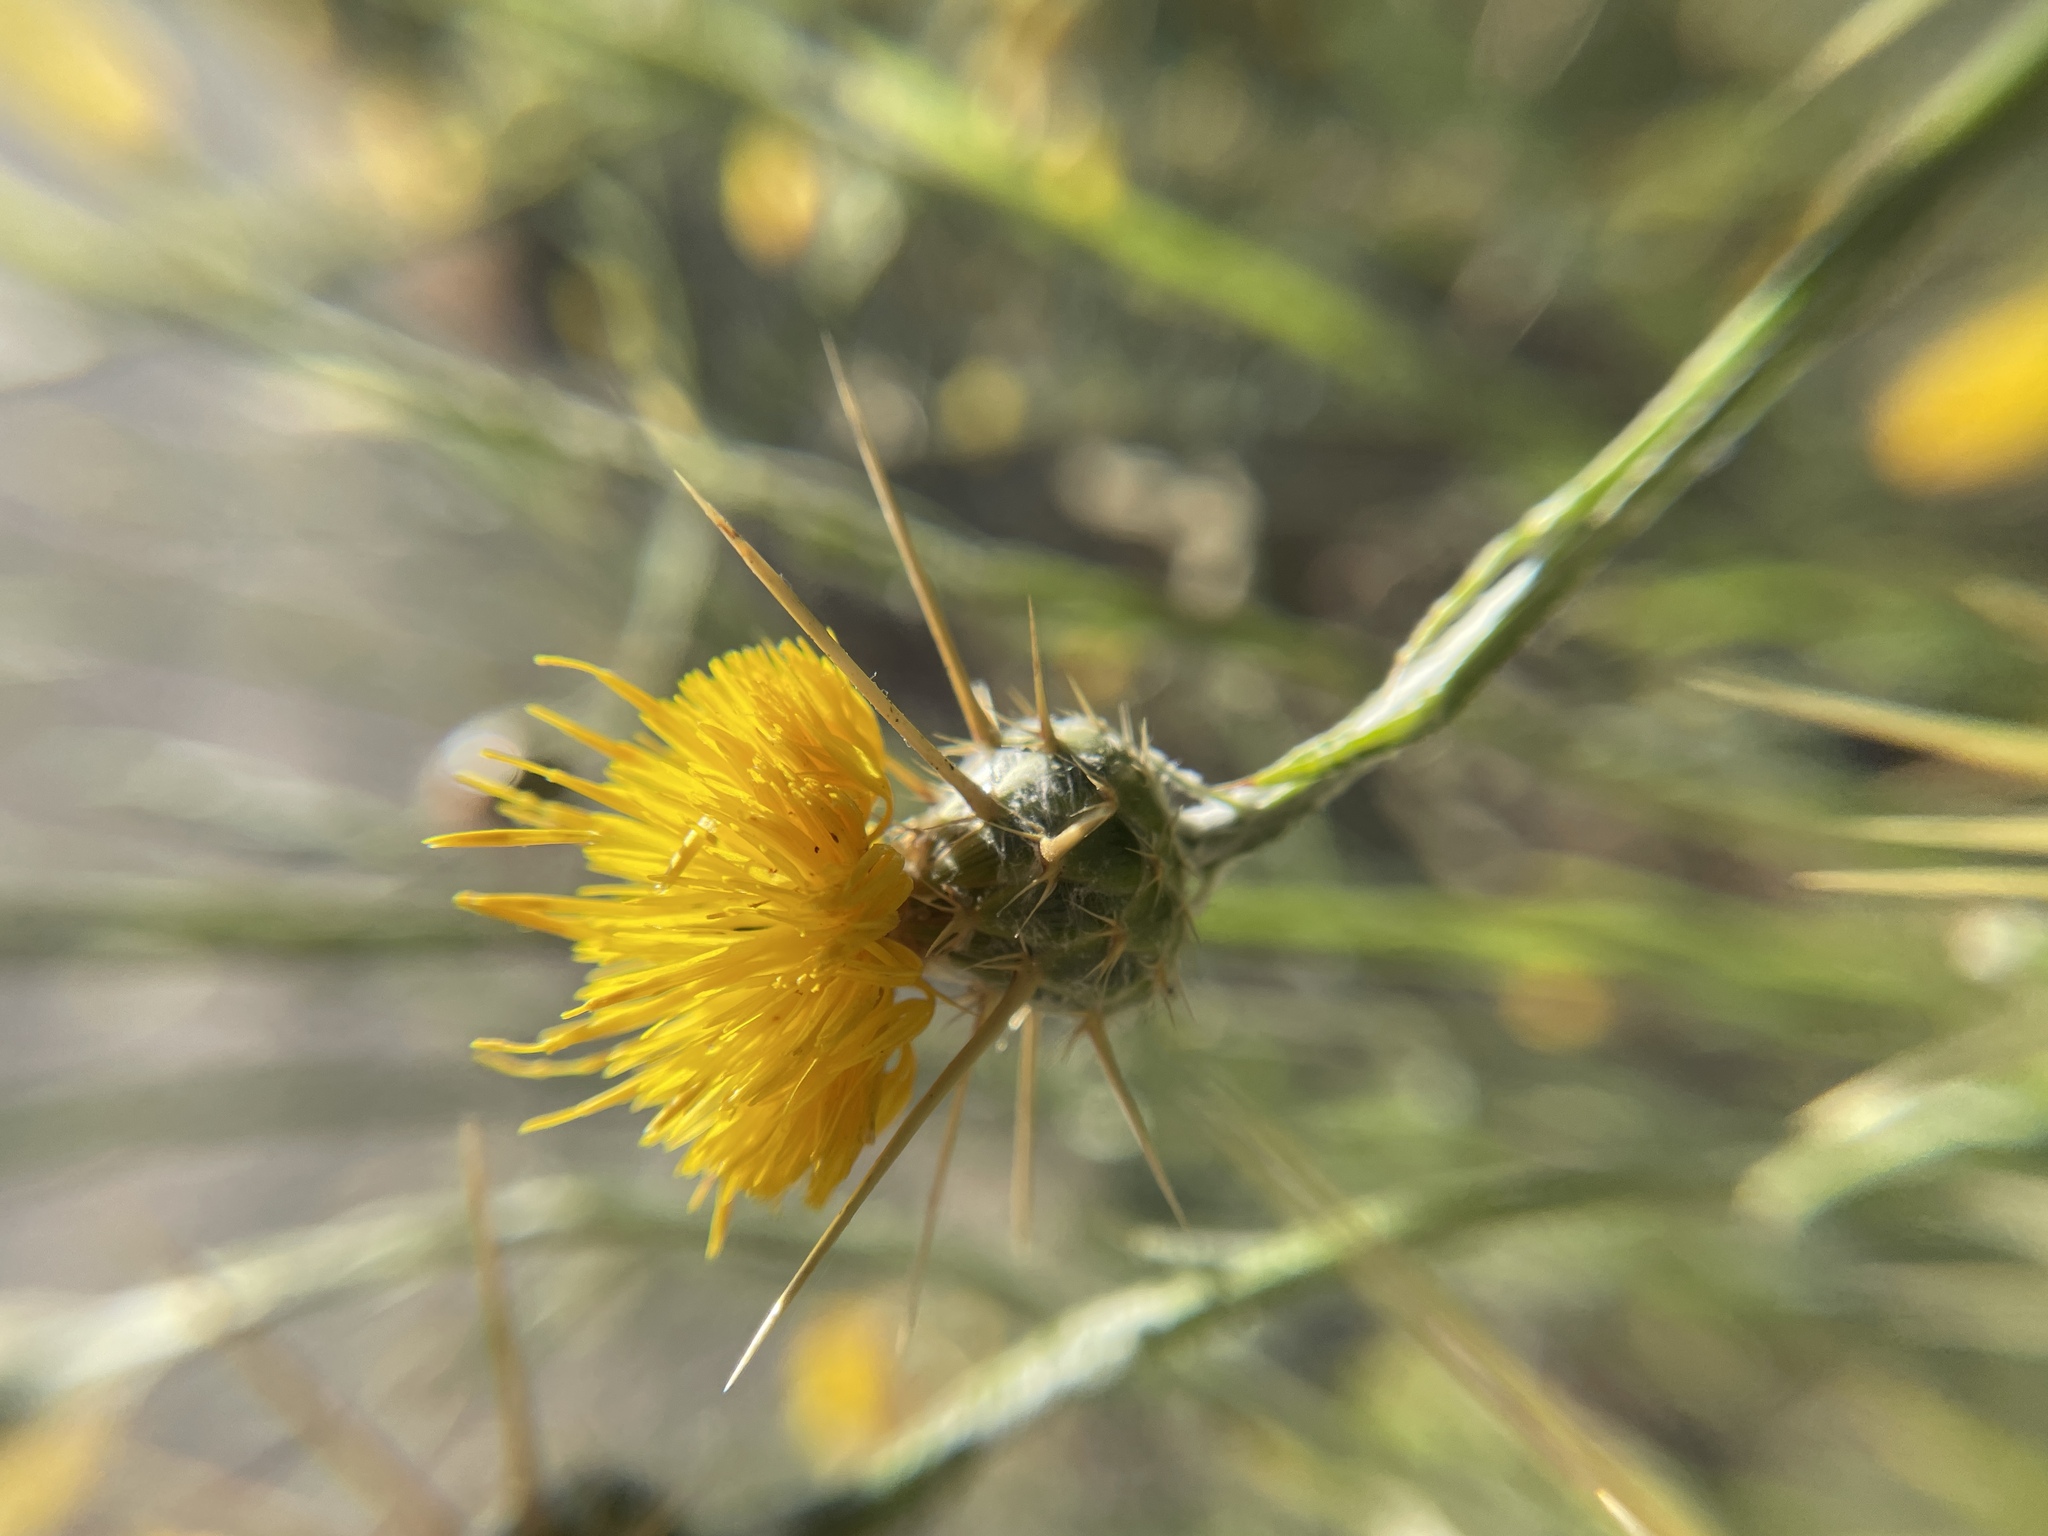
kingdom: Plantae
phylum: Tracheophyta
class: Magnoliopsida
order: Asterales
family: Asteraceae
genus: Centaurea
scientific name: Centaurea solstitialis
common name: Yellow star-thistle
